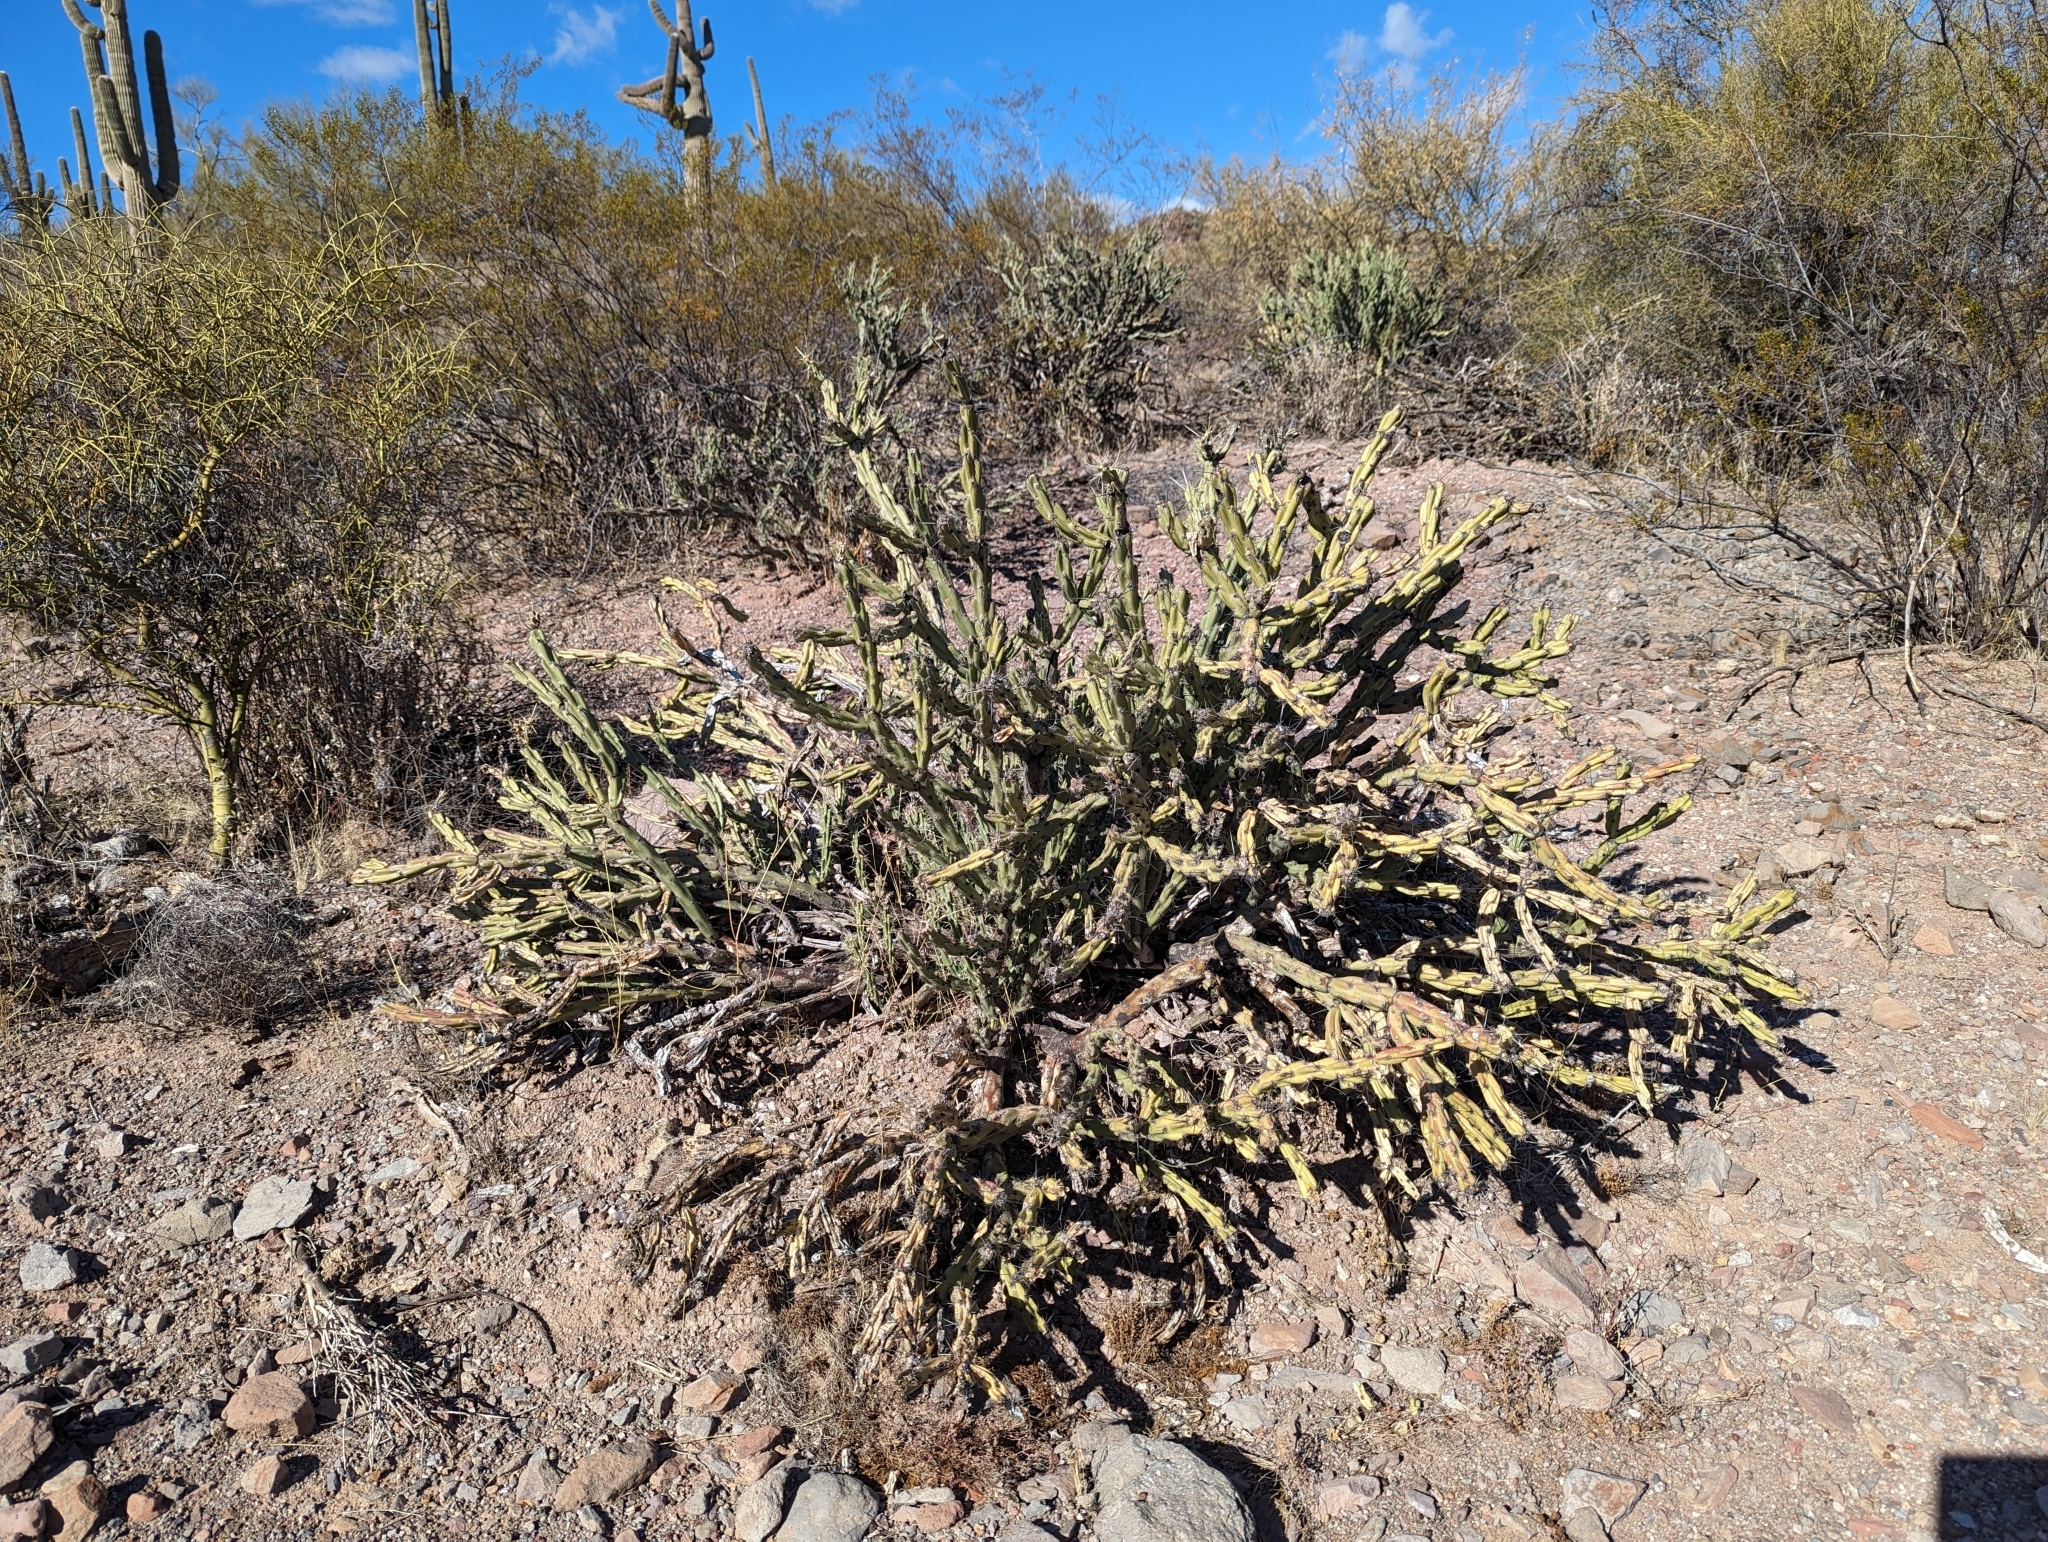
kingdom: Plantae
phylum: Tracheophyta
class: Magnoliopsida
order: Caryophyllales
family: Cactaceae
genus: Cylindropuntia
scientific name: Cylindropuntia acanthocarpa
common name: Buckhorn cholla
